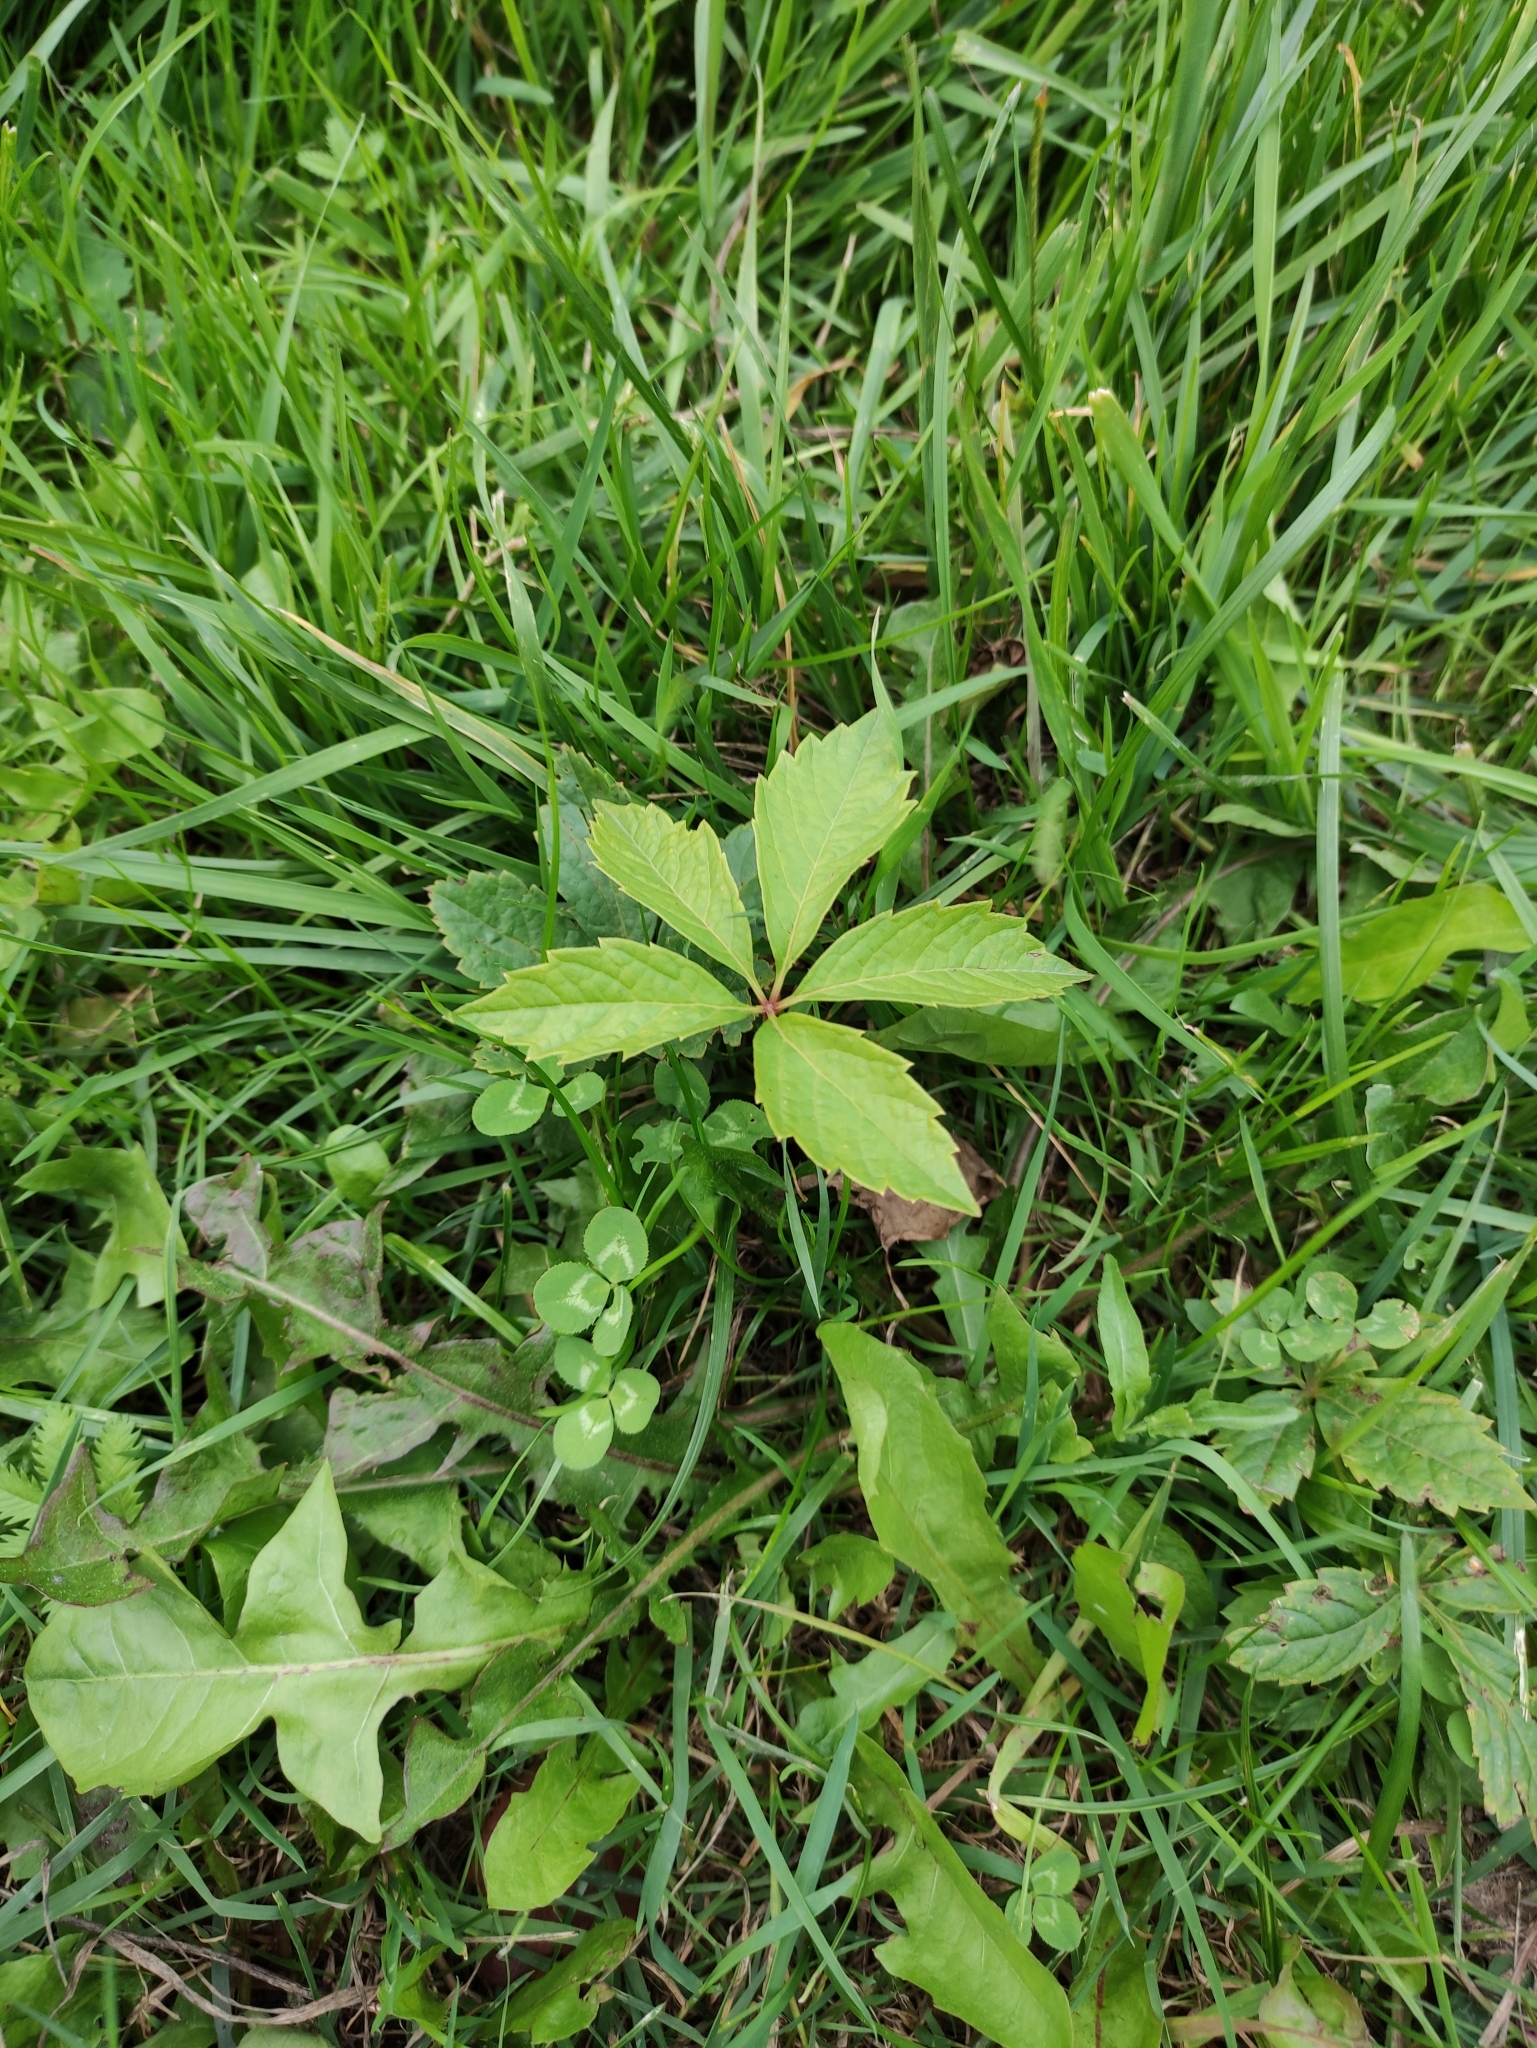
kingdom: Plantae
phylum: Tracheophyta
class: Magnoliopsida
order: Vitales
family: Vitaceae
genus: Parthenocissus
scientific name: Parthenocissus inserta
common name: False virginia-creeper
